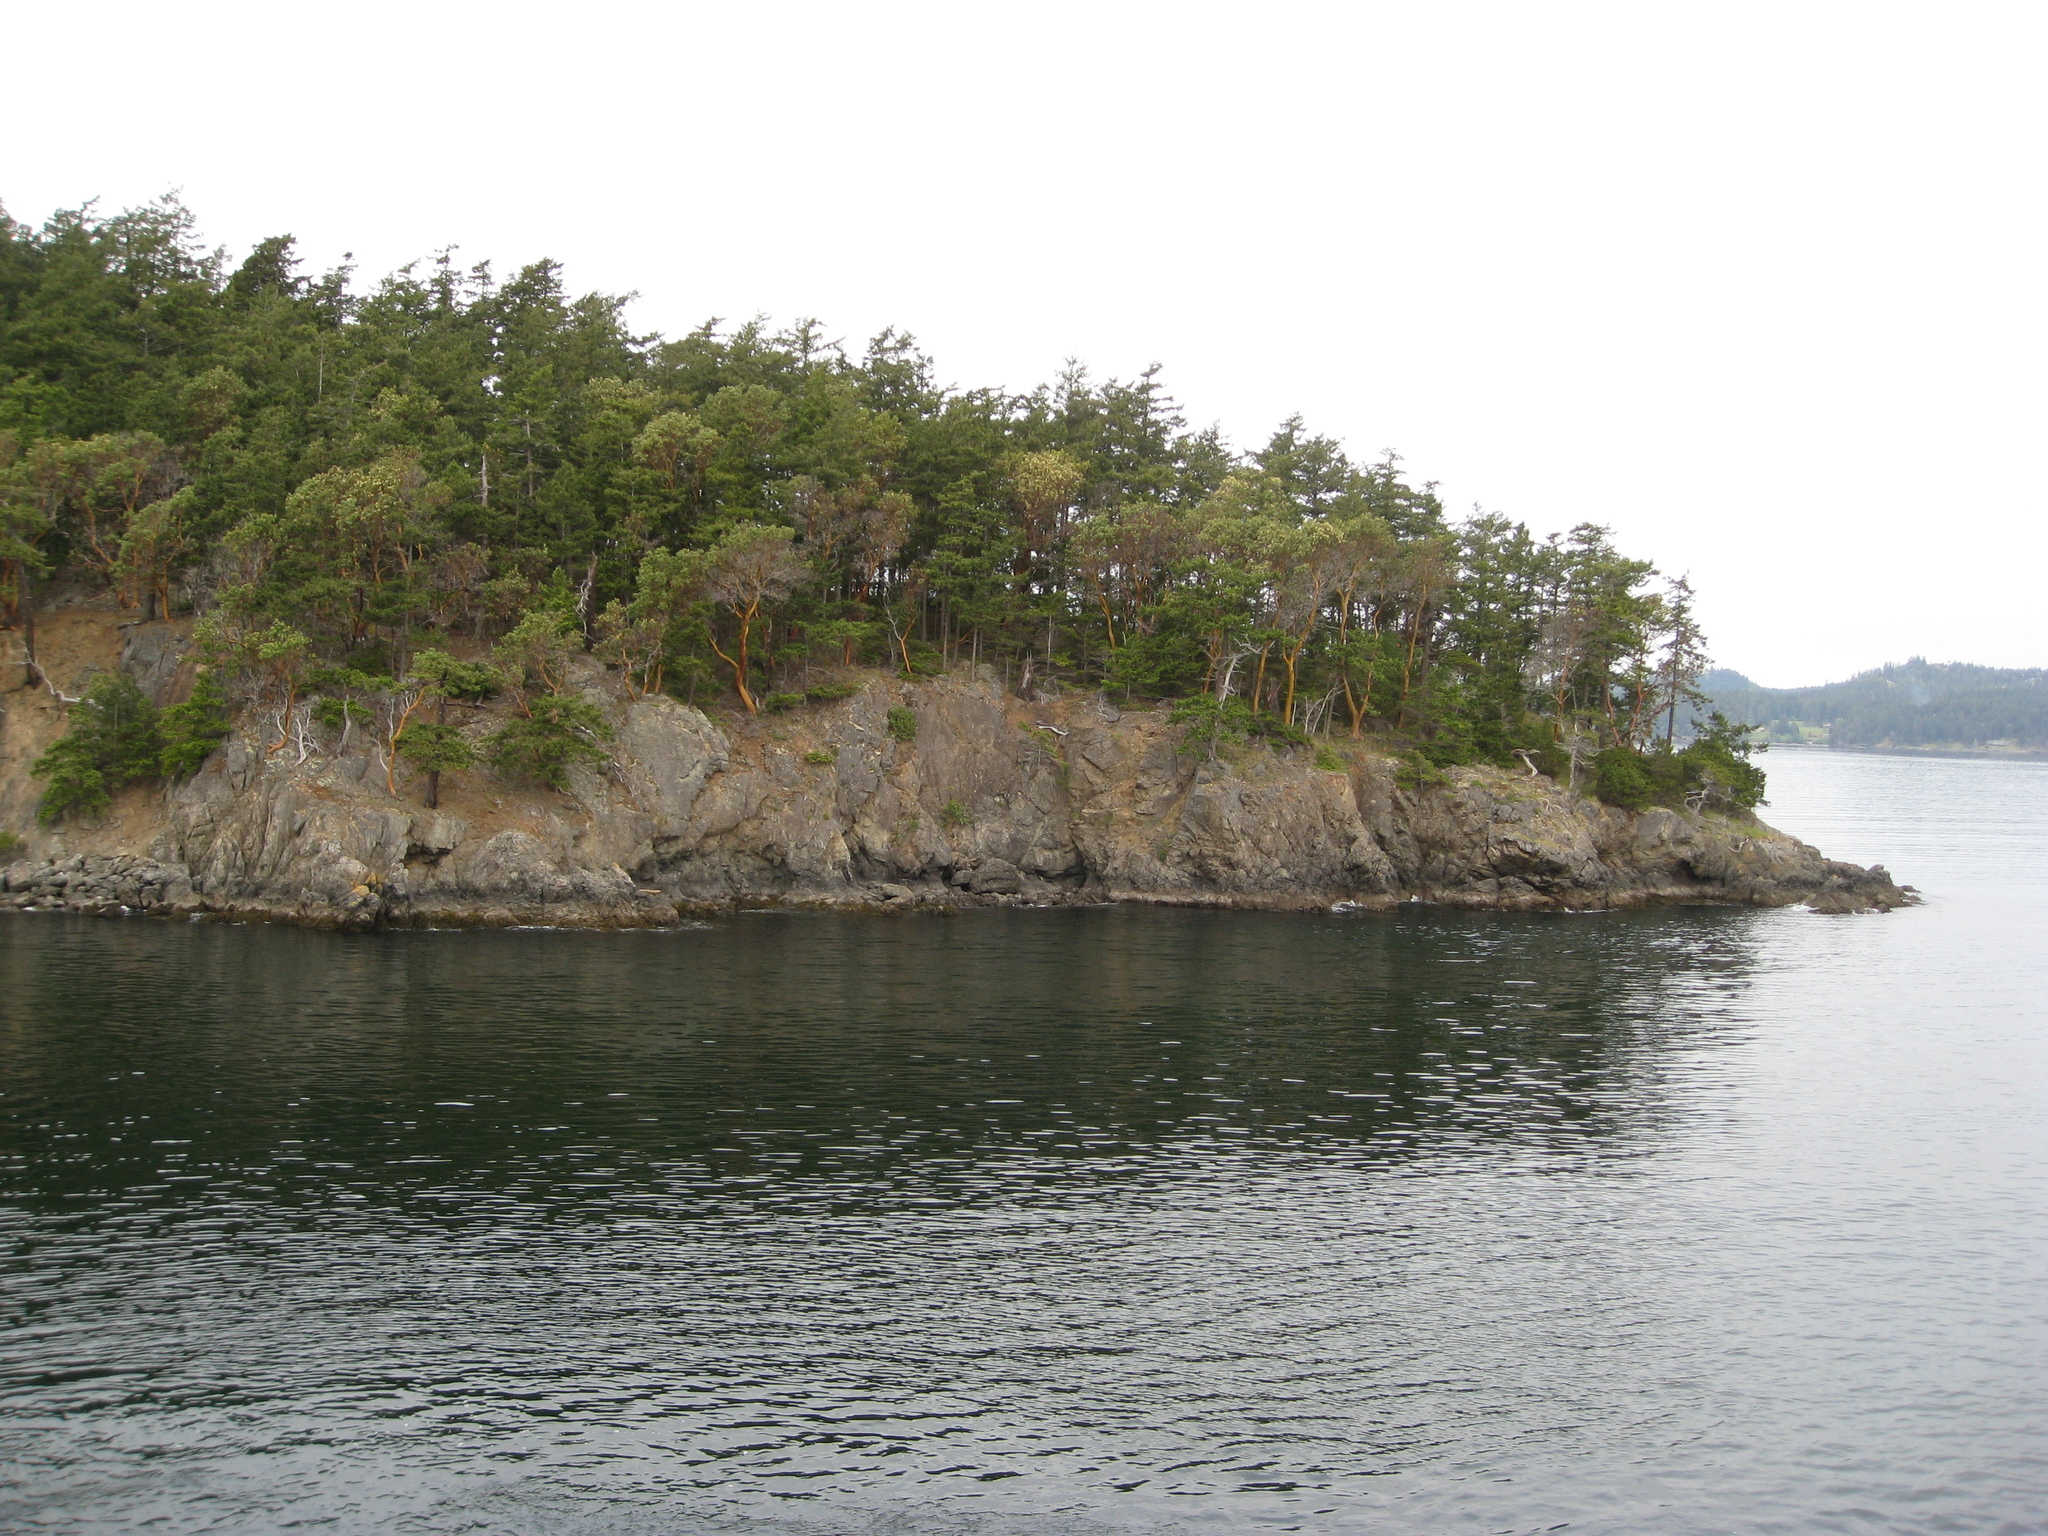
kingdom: Plantae
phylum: Tracheophyta
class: Magnoliopsida
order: Ericales
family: Ericaceae
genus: Arbutus
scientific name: Arbutus menziesii
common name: Pacific madrone
